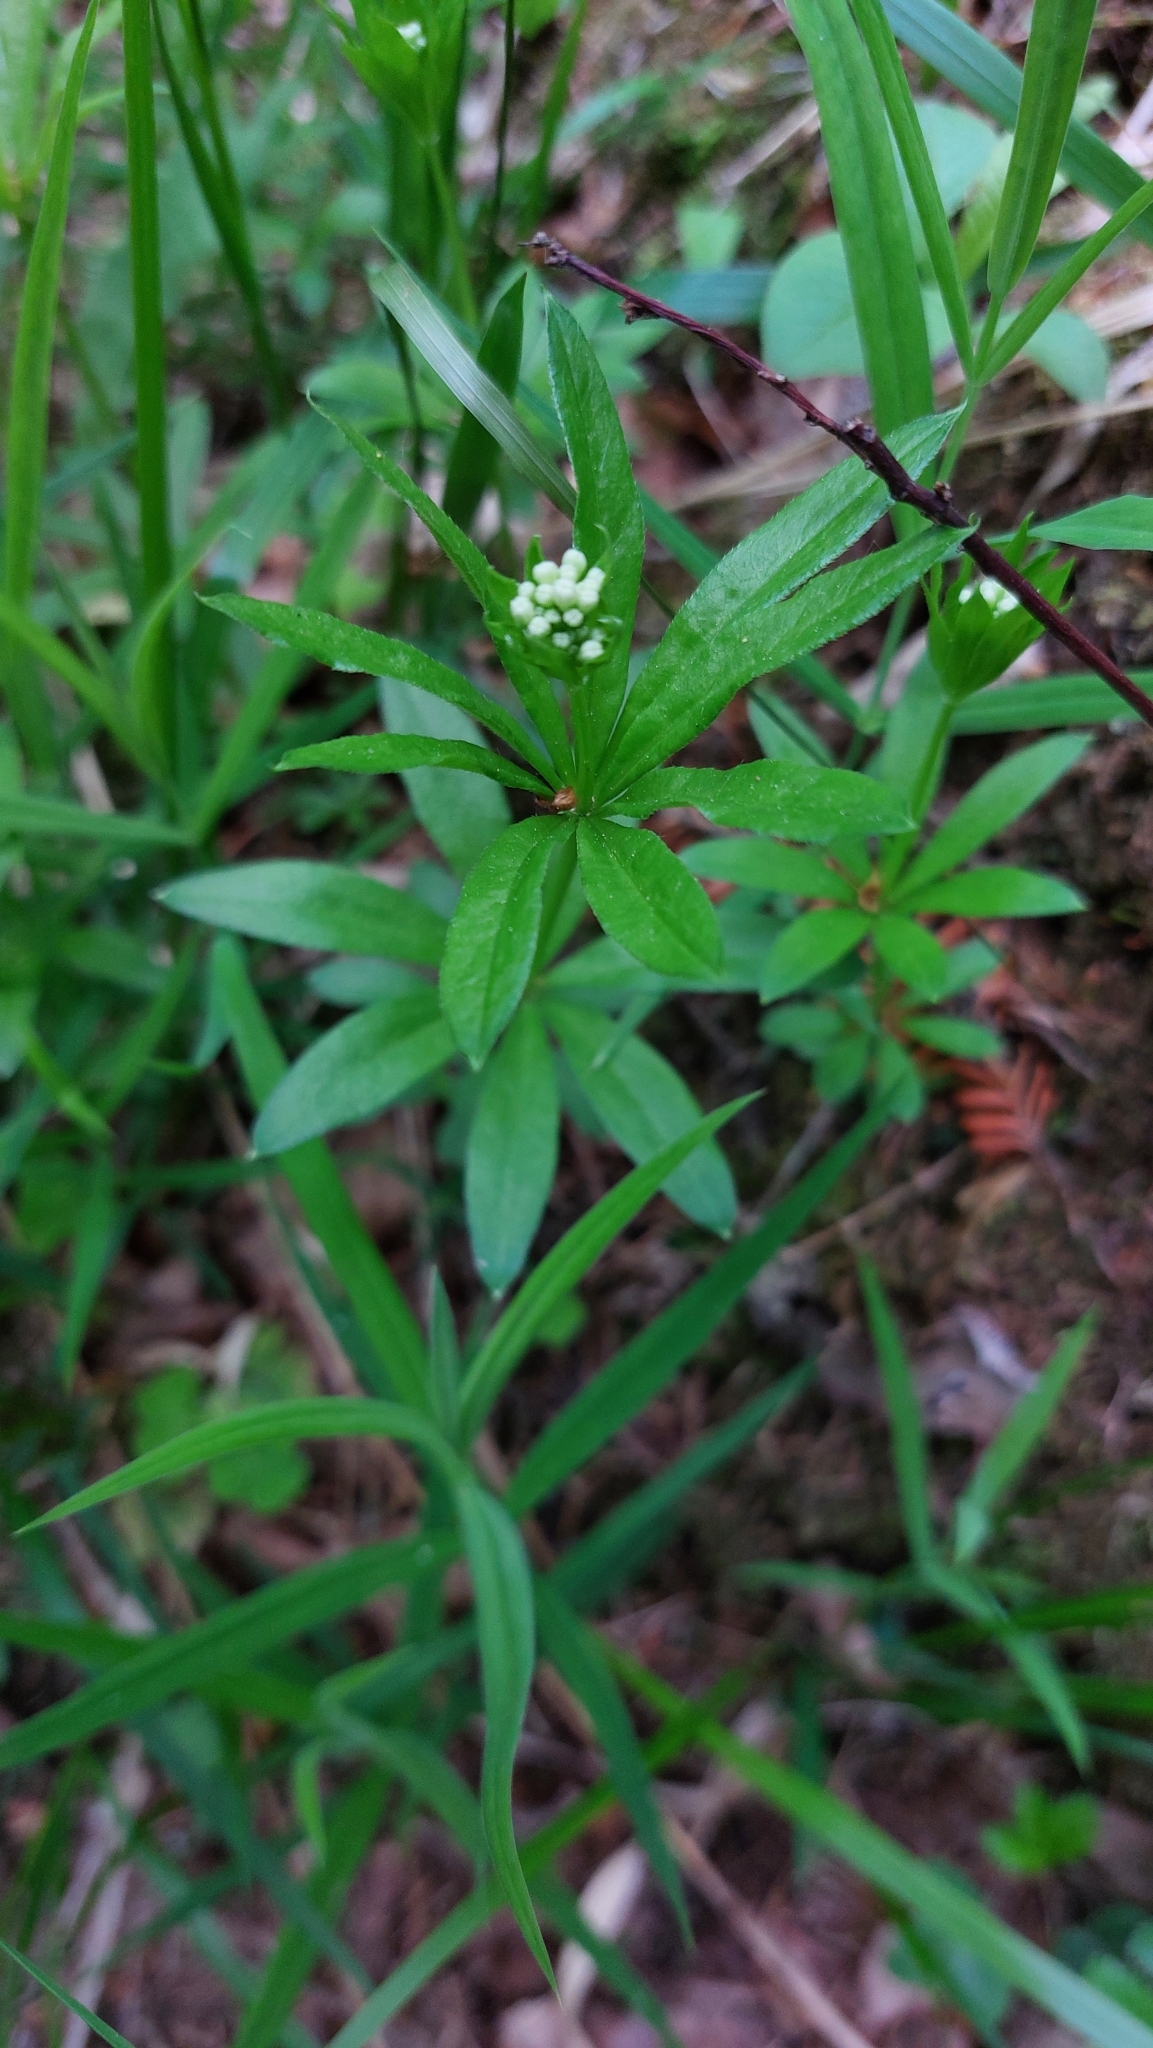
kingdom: Plantae
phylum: Tracheophyta
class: Magnoliopsida
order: Gentianales
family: Rubiaceae
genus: Galium
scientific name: Galium odoratum
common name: Sweet woodruff
